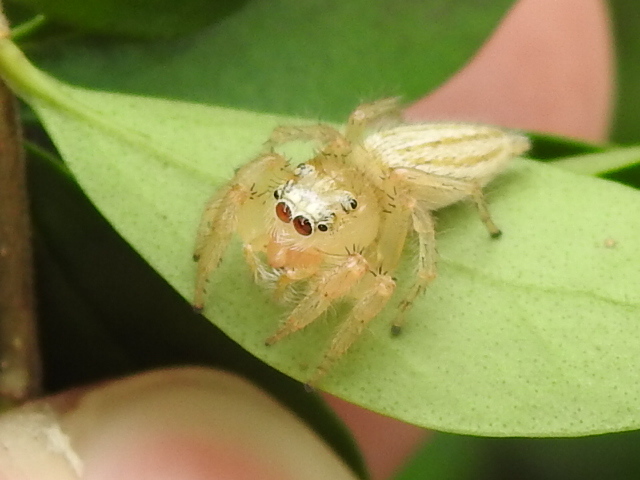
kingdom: Animalia
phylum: Arthropoda
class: Arachnida
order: Araneae
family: Salticidae
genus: Colonus
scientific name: Colonus puerperus
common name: Jumping spiders
